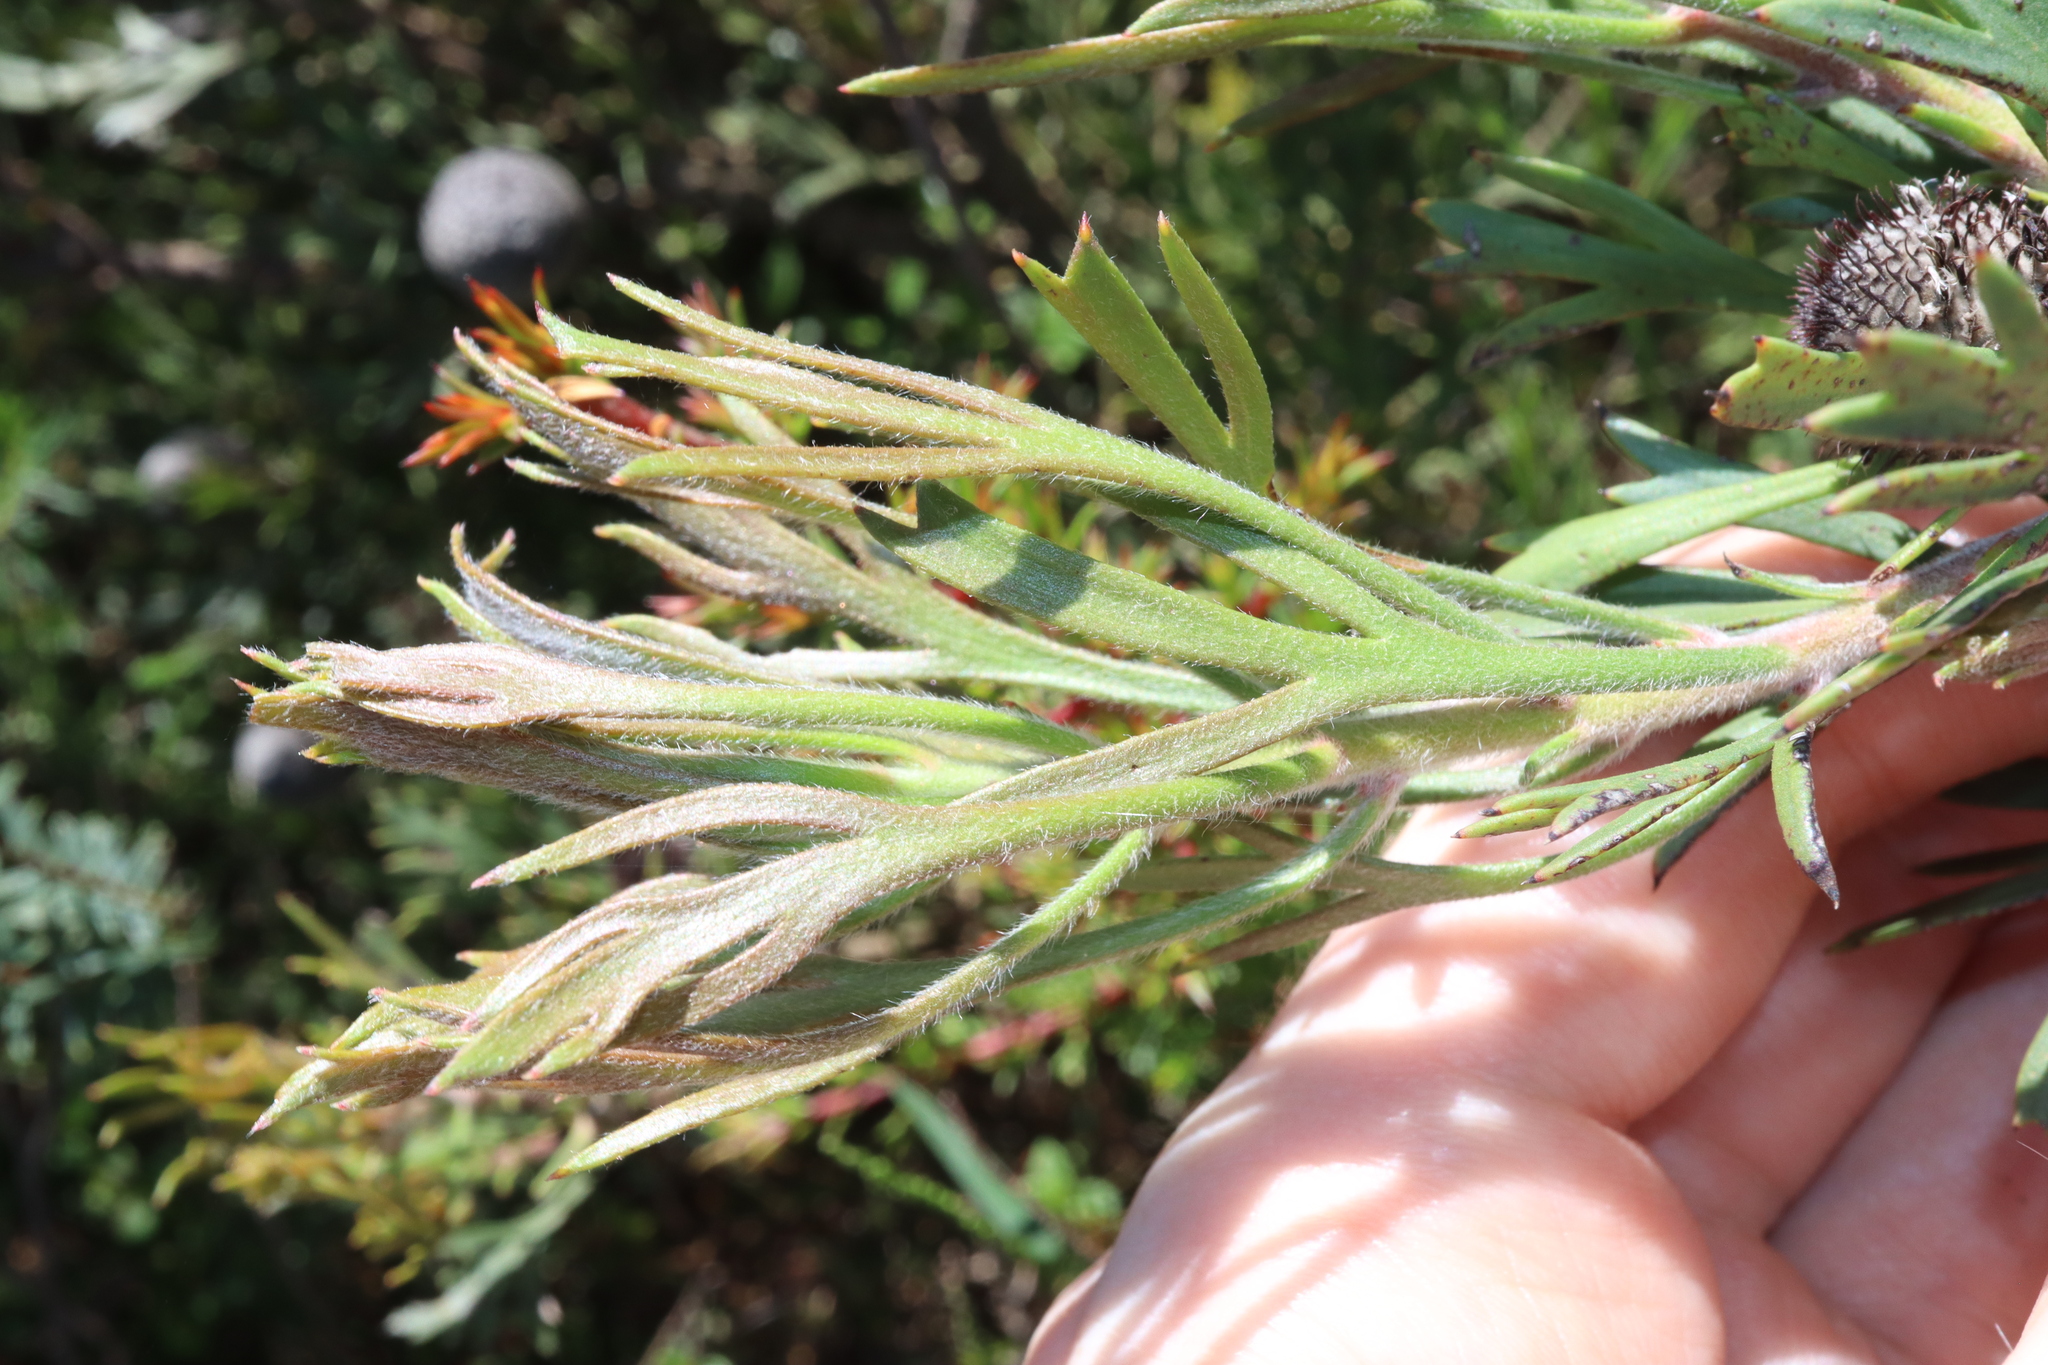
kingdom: Plantae
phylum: Tracheophyta
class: Magnoliopsida
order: Proteales
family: Proteaceae
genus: Isopogon
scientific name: Isopogon anemonifolius
